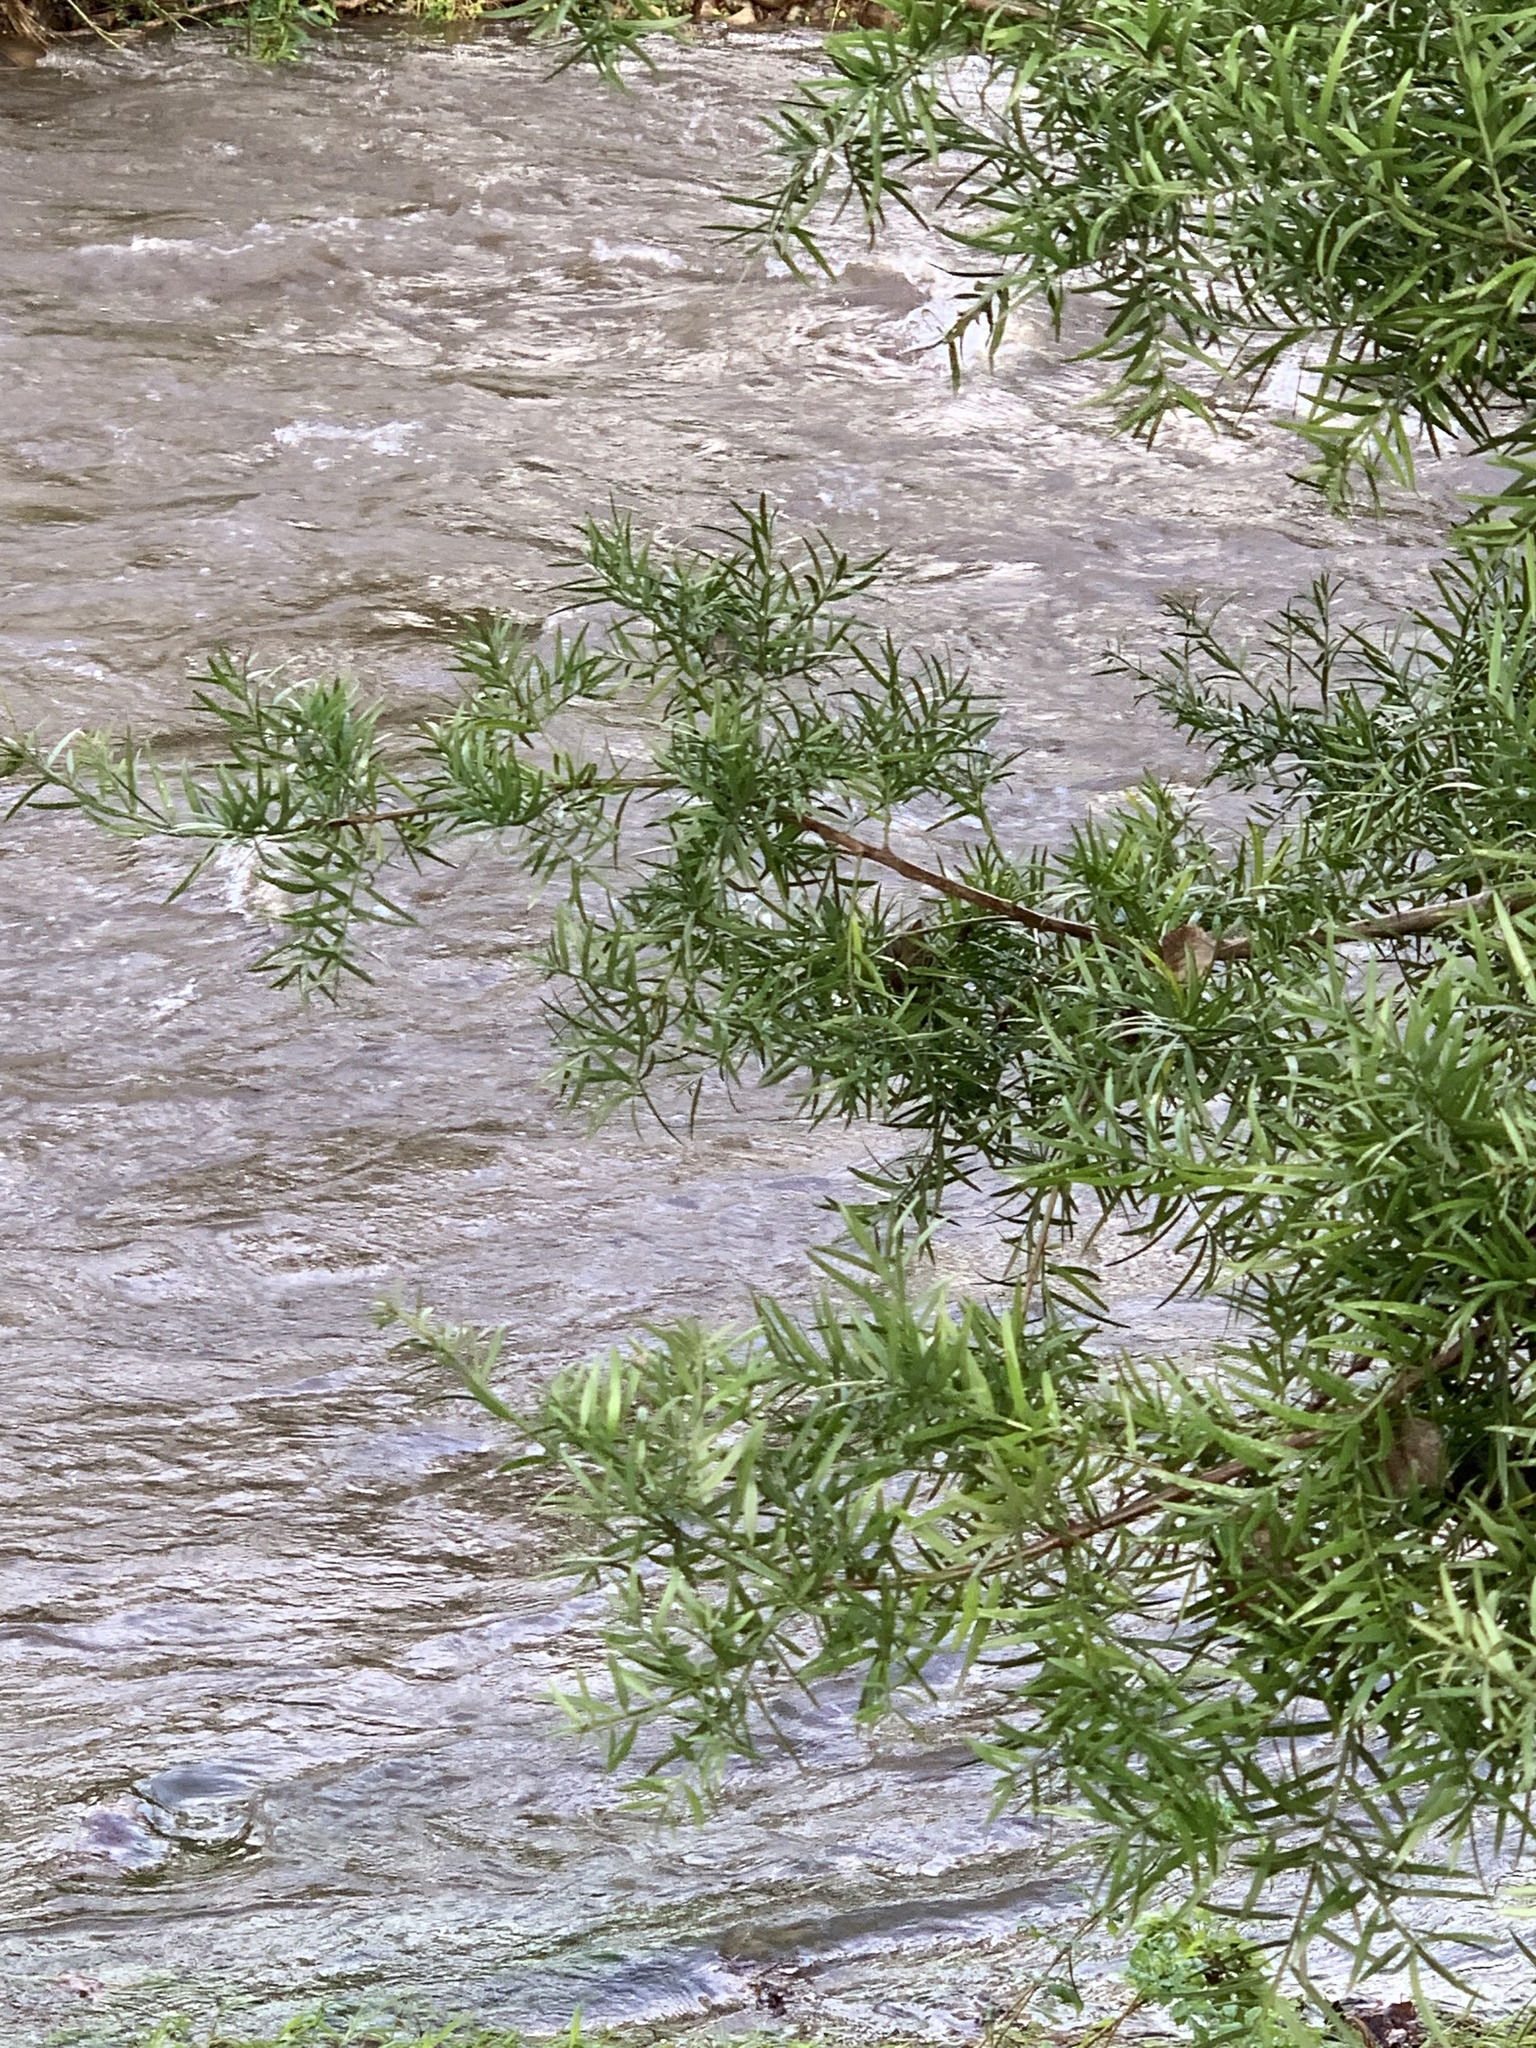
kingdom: Plantae
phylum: Tracheophyta
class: Pinopsida
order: Pinales
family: Podocarpaceae
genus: Podocarpus
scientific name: Podocarpus elongatus
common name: Breede river yellowwood
